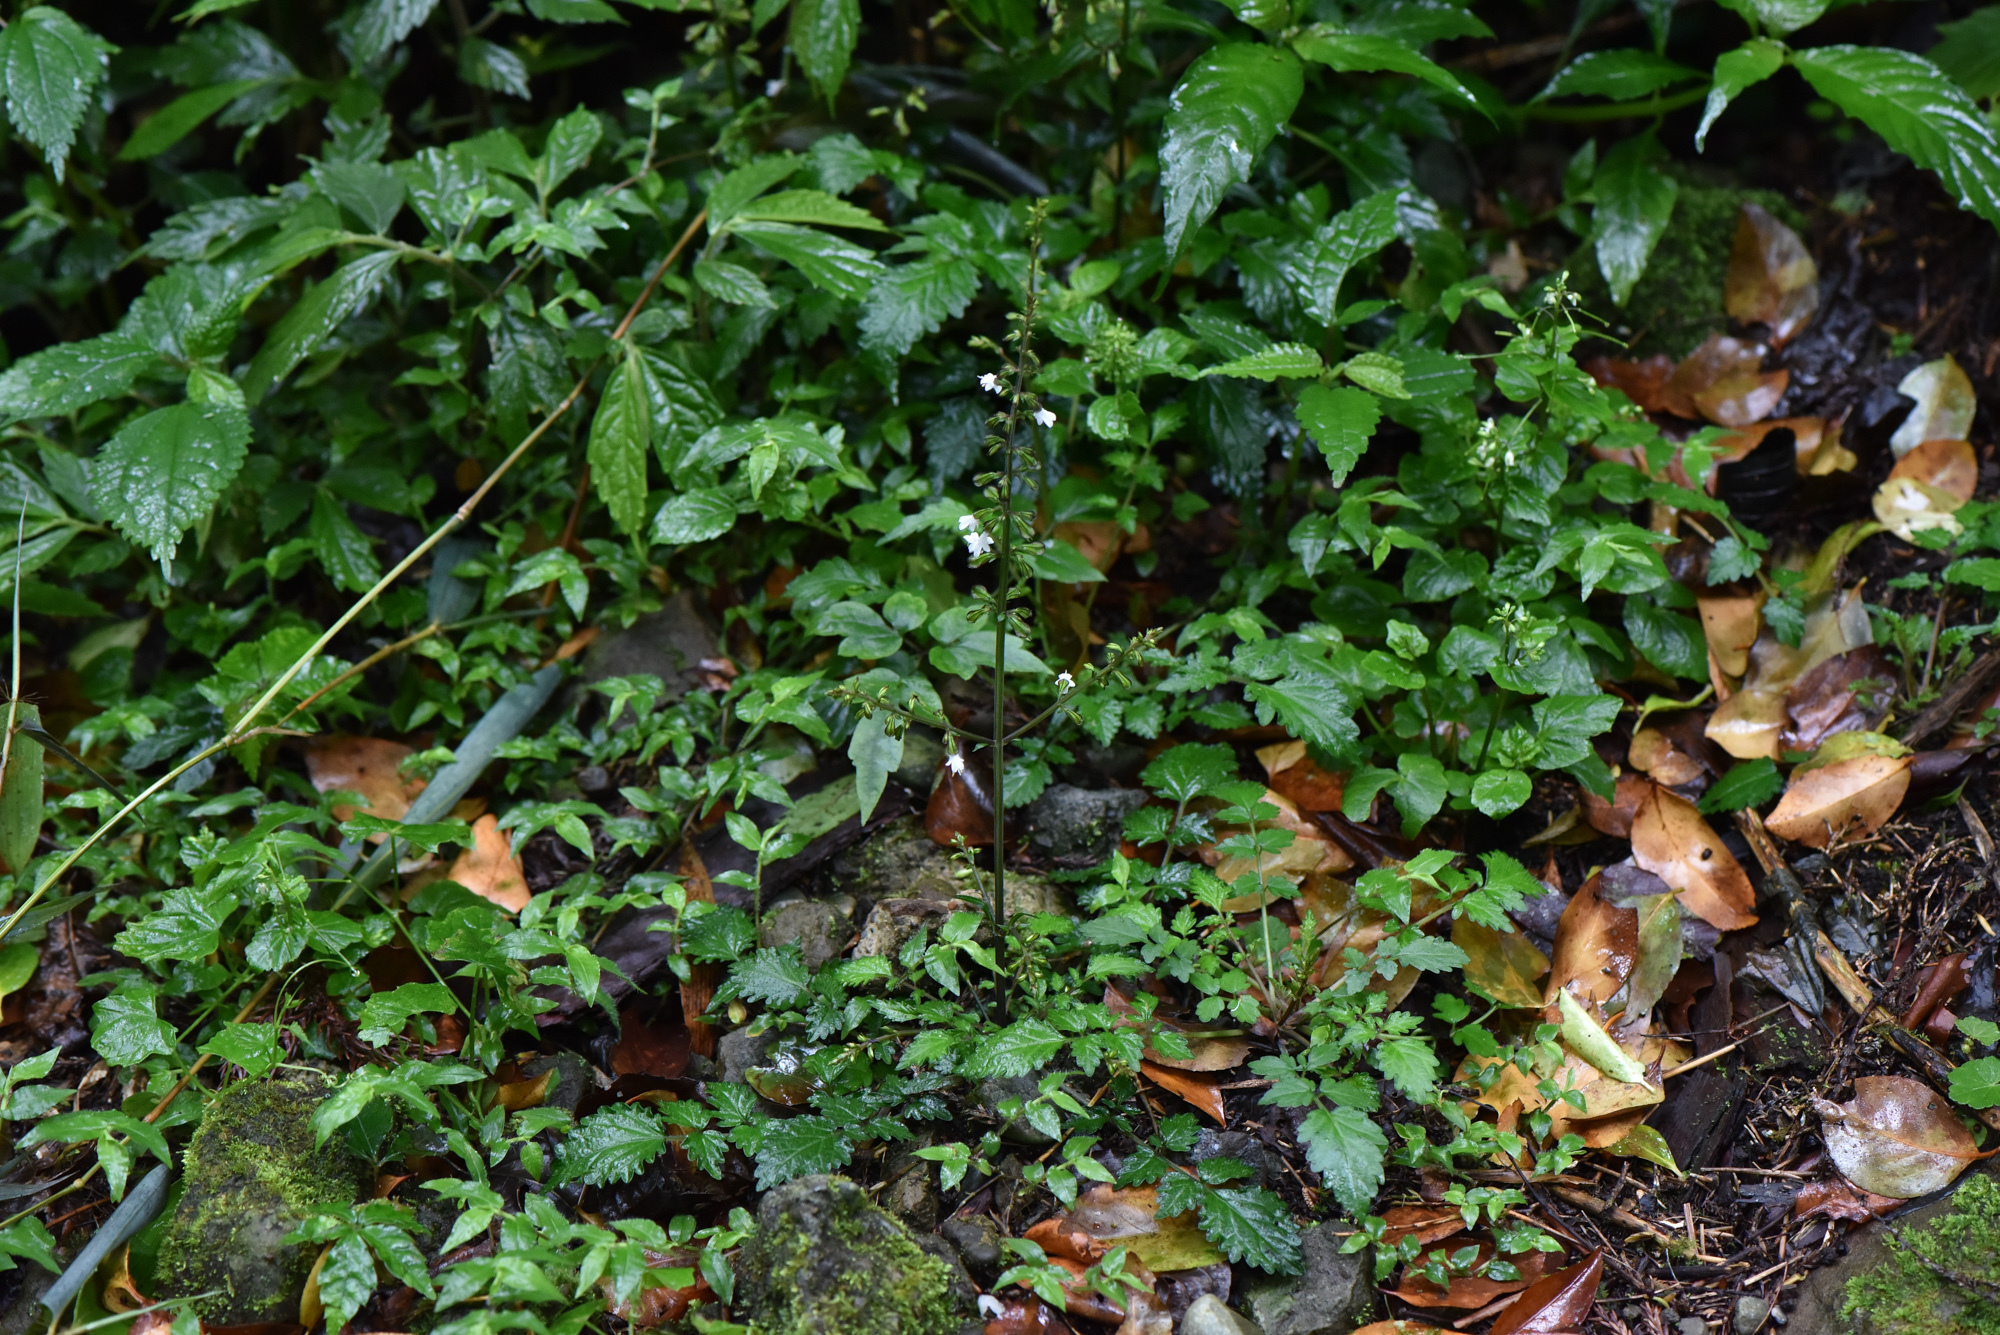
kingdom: Plantae
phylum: Tracheophyta
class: Magnoliopsida
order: Lamiales
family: Lamiaceae
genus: Salvia
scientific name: Salvia hayatae
